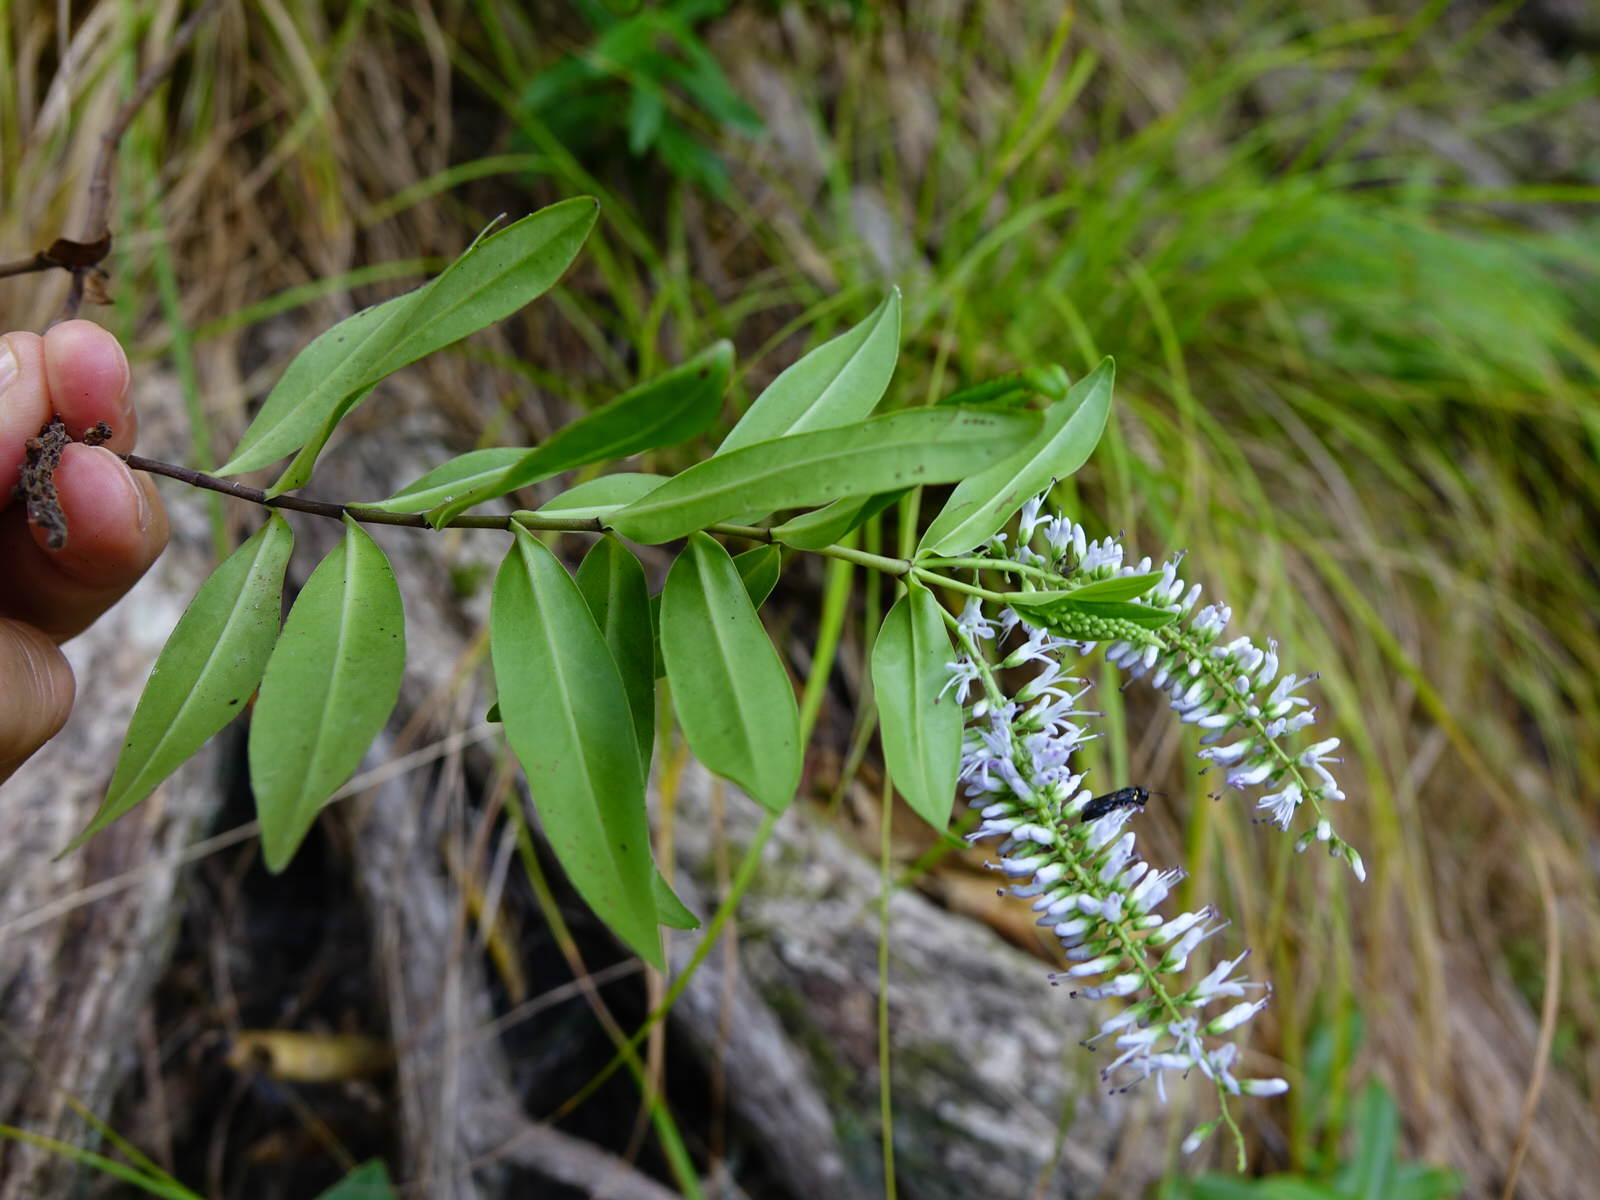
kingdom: Plantae
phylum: Tracheophyta
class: Magnoliopsida
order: Lamiales
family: Plantaginaceae
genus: Veronica
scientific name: Veronica stricta
